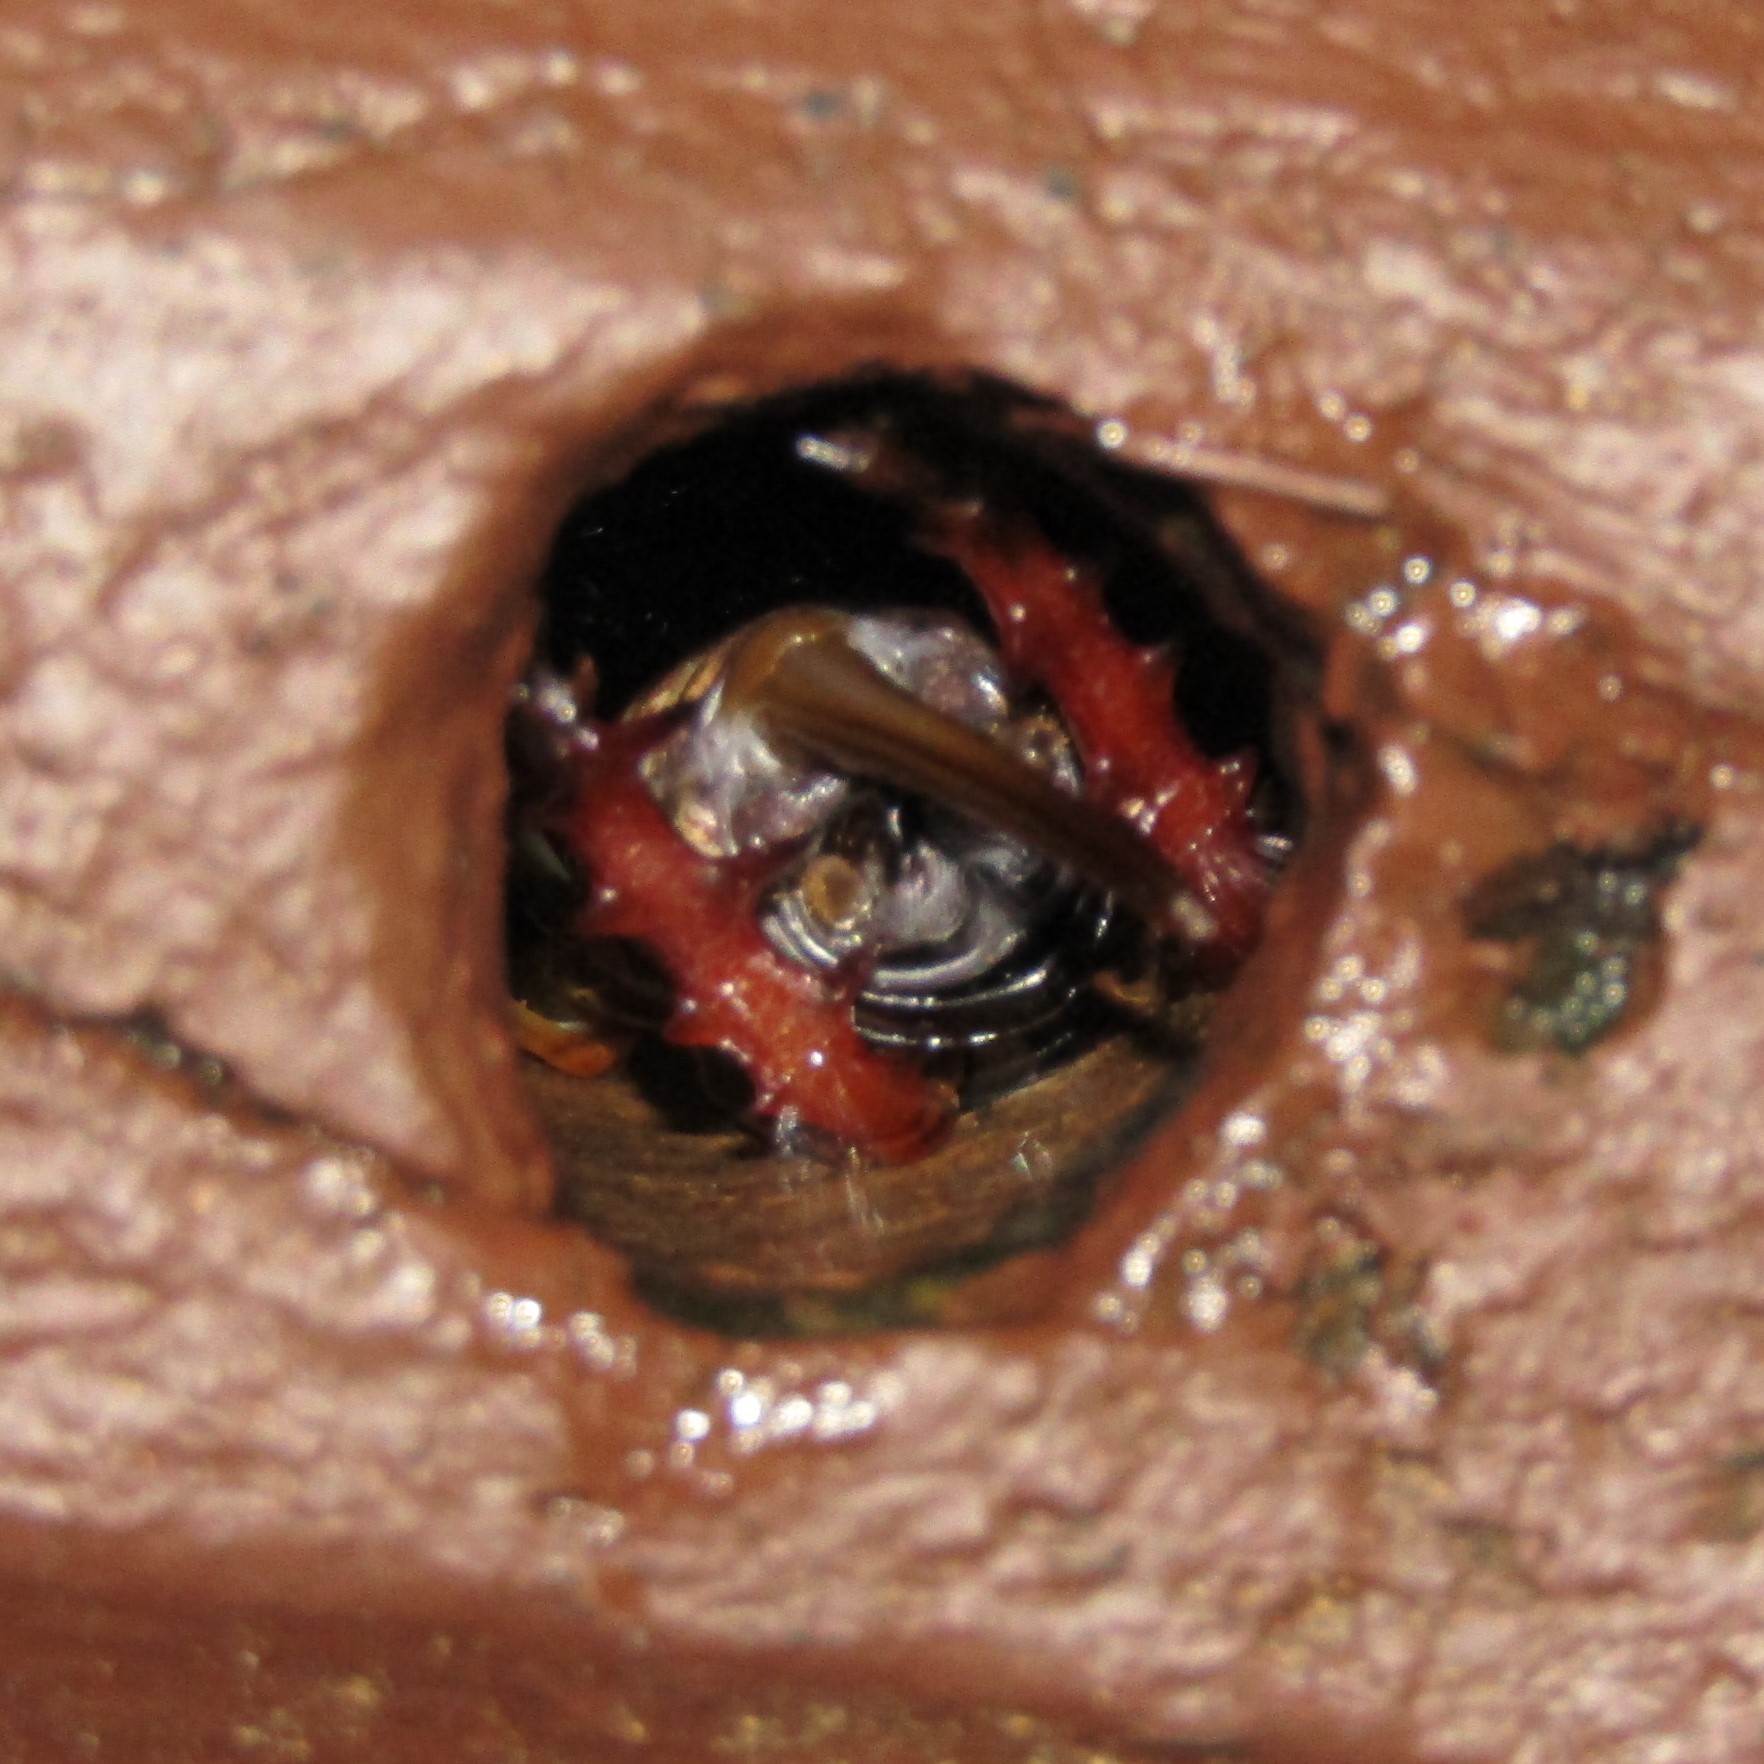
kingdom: Animalia
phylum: Arthropoda
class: Insecta
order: Orthoptera
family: Anostostomatidae
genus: Hemideina
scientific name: Hemideina crassidens
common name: Wellington tree weta
